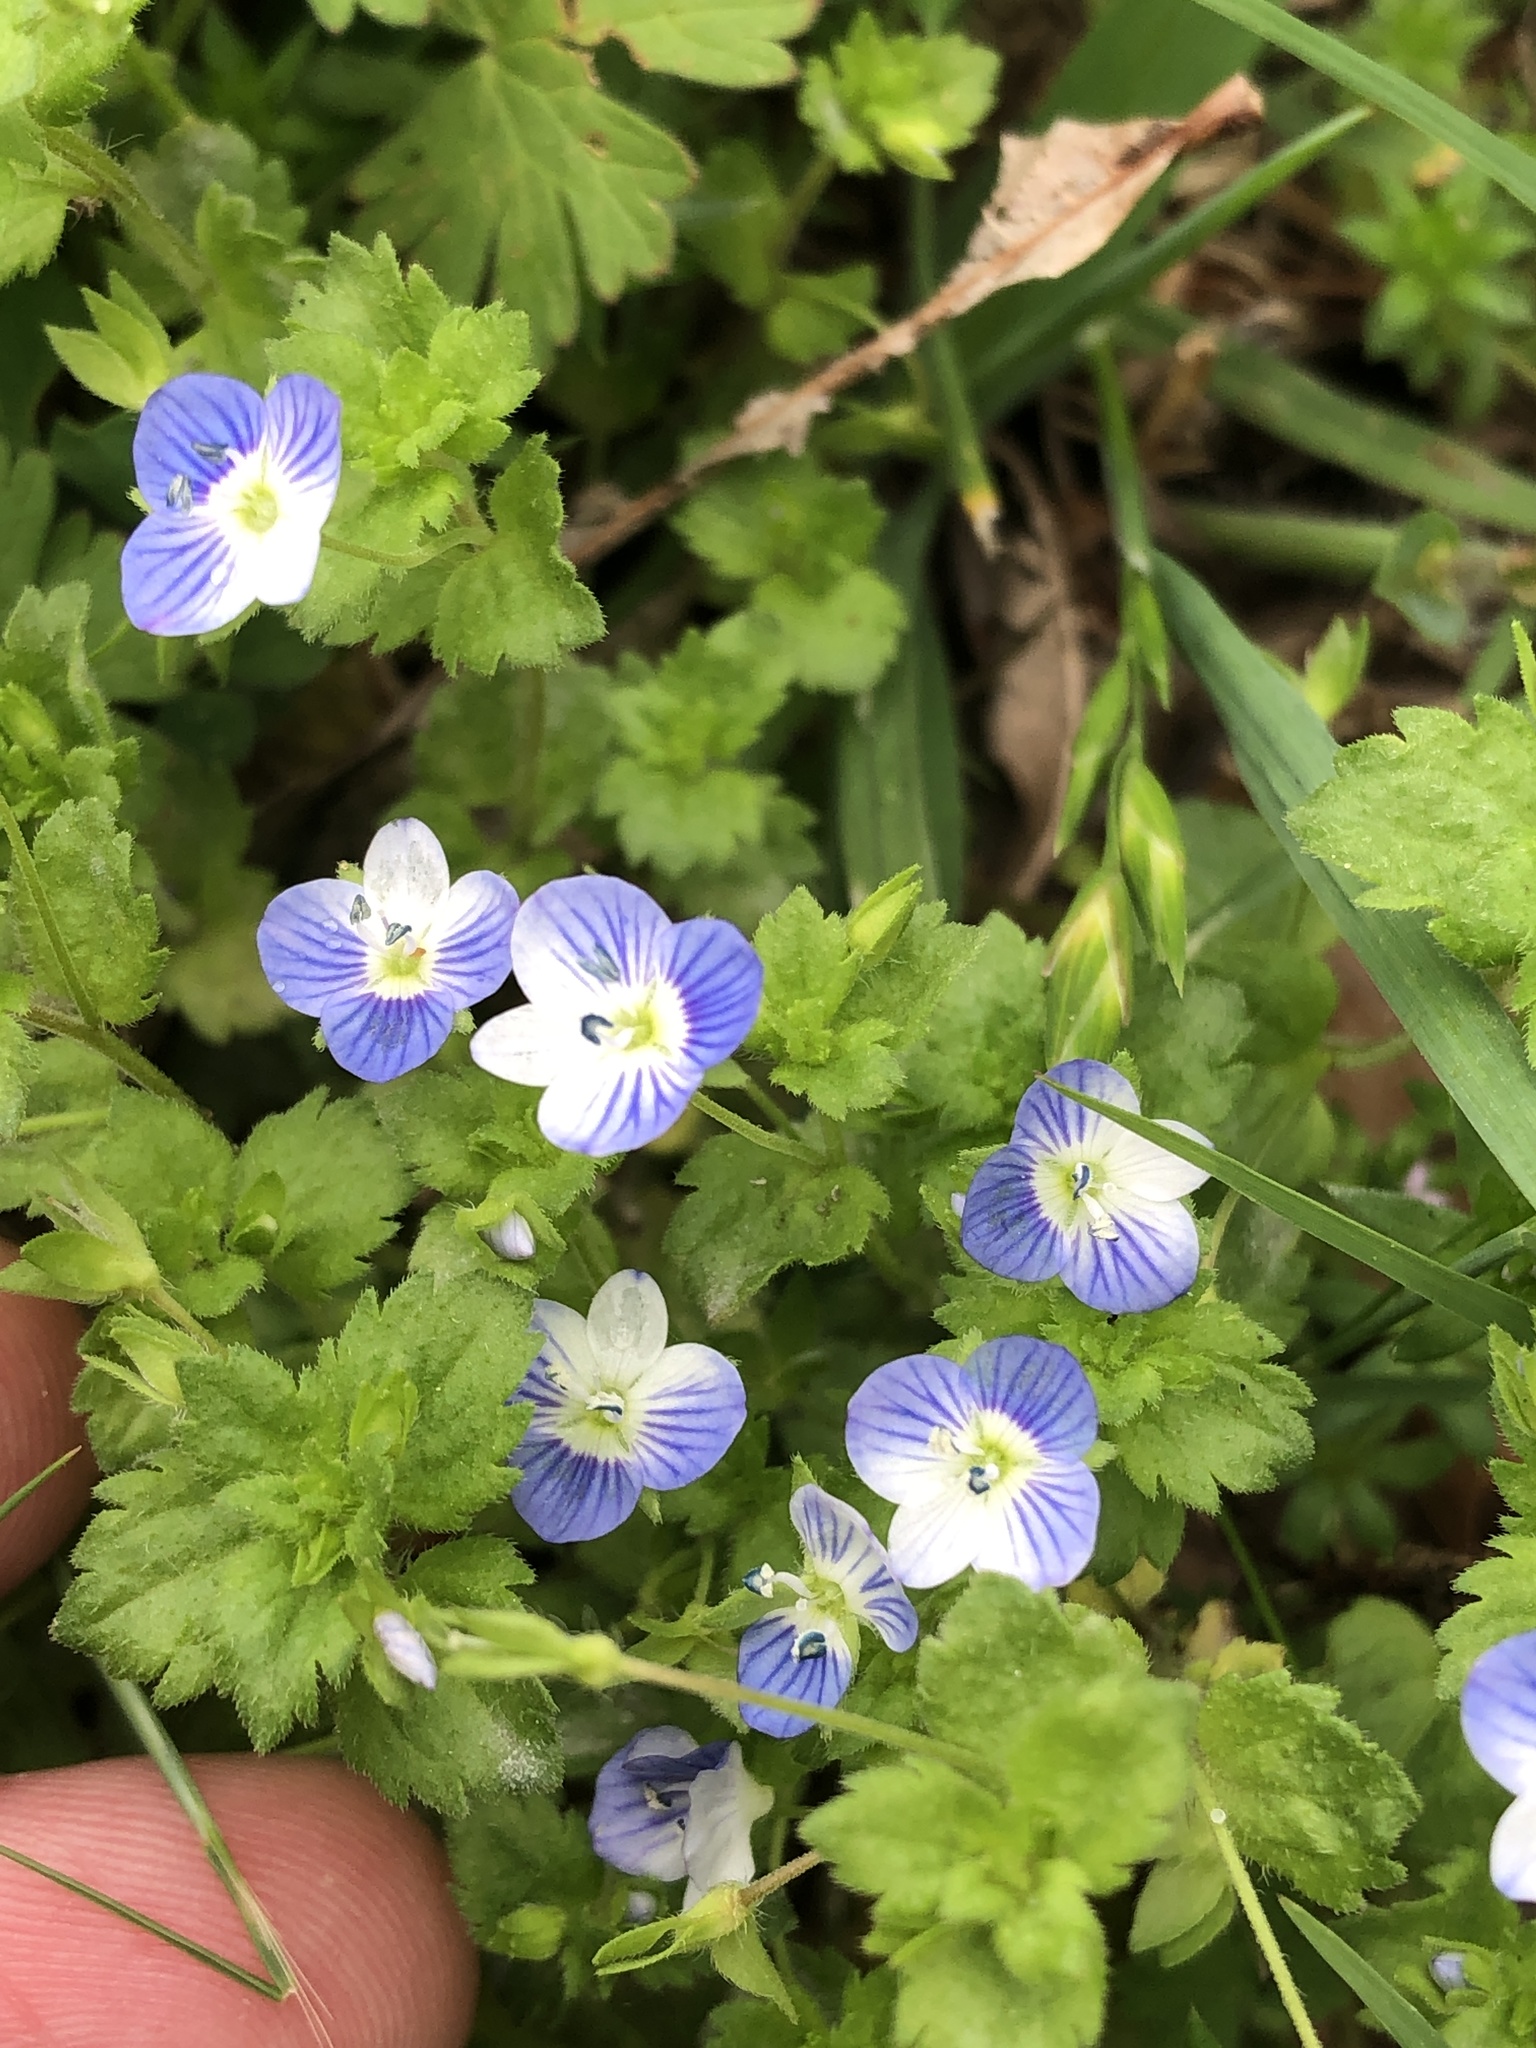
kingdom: Plantae
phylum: Tracheophyta
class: Magnoliopsida
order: Lamiales
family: Plantaginaceae
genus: Veronica
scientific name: Veronica persica
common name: Common field-speedwell
